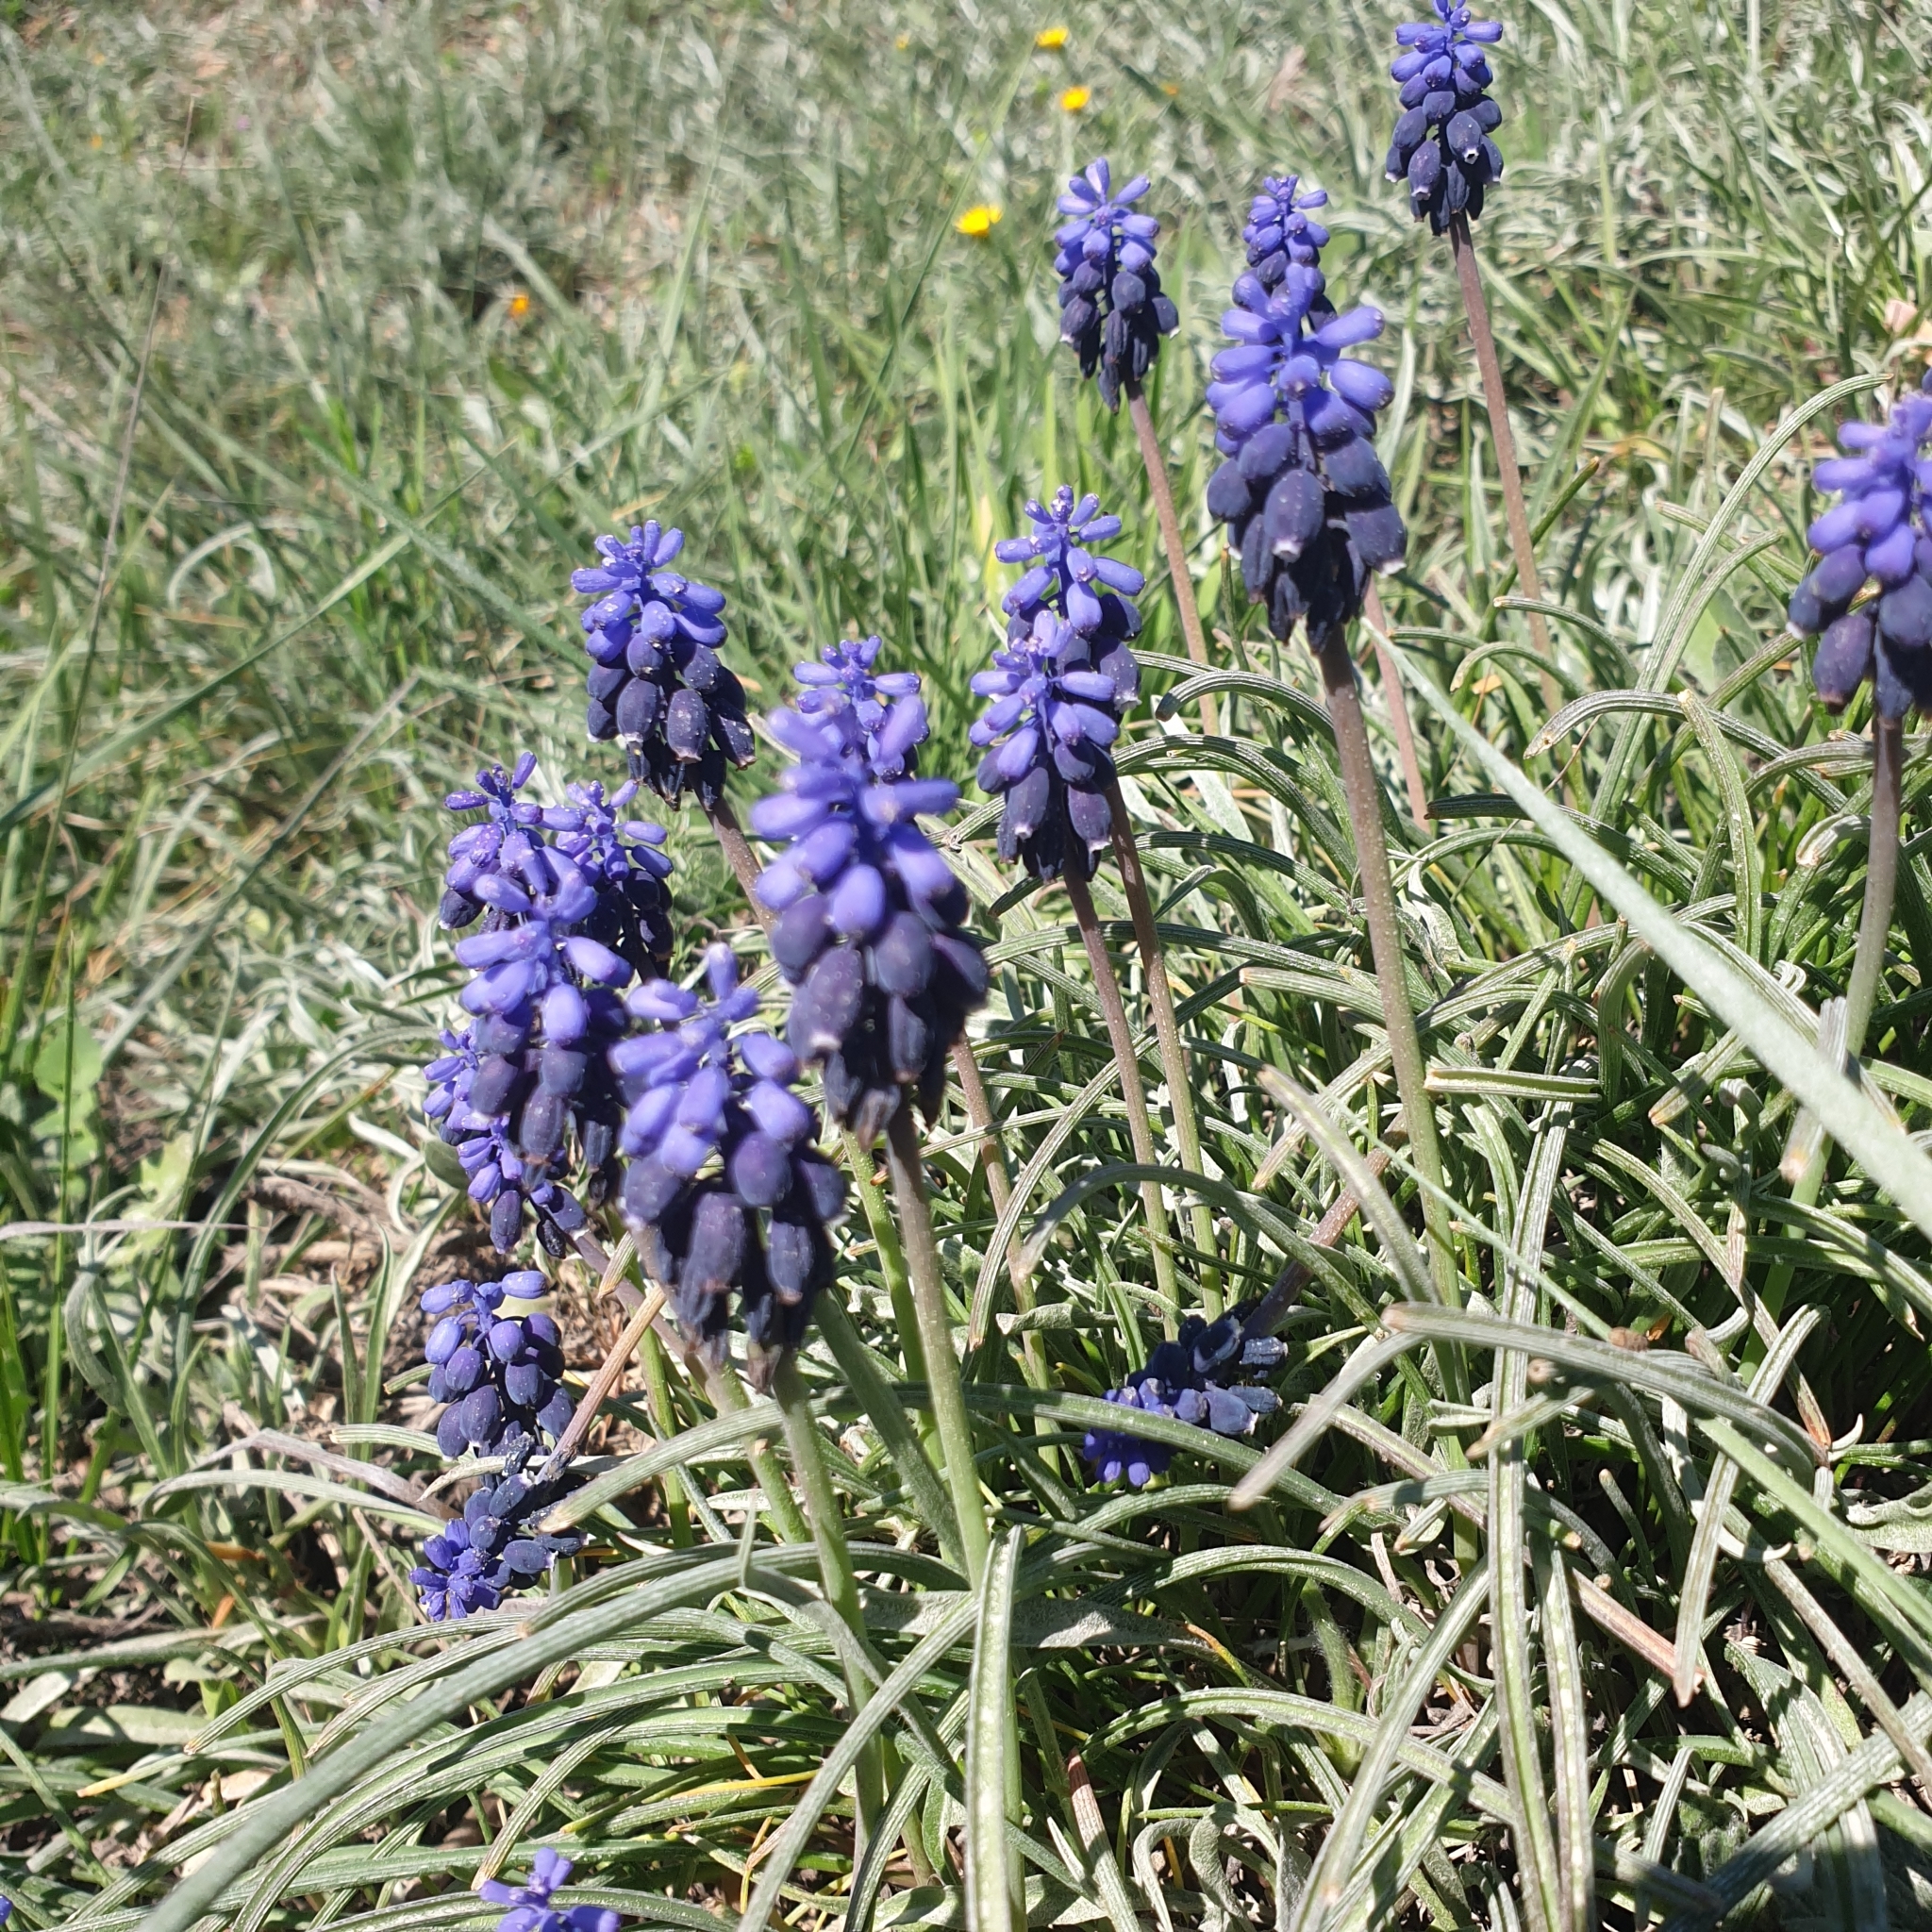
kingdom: Plantae
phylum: Tracheophyta
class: Liliopsida
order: Asparagales
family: Asparagaceae
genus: Muscari
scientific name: Muscari neglectum
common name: Grape-hyacinth
